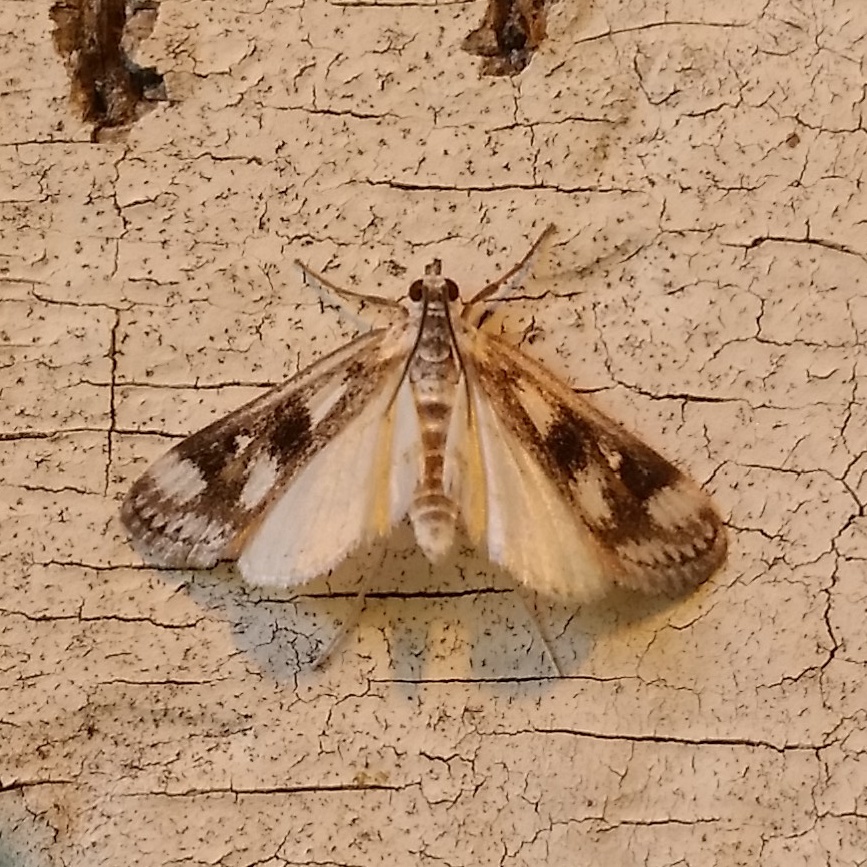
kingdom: Animalia
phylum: Arthropoda
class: Insecta
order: Lepidoptera
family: Crambidae
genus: Parapoynx
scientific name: Parapoynx maculalis
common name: Polymorphic pondweed moth
